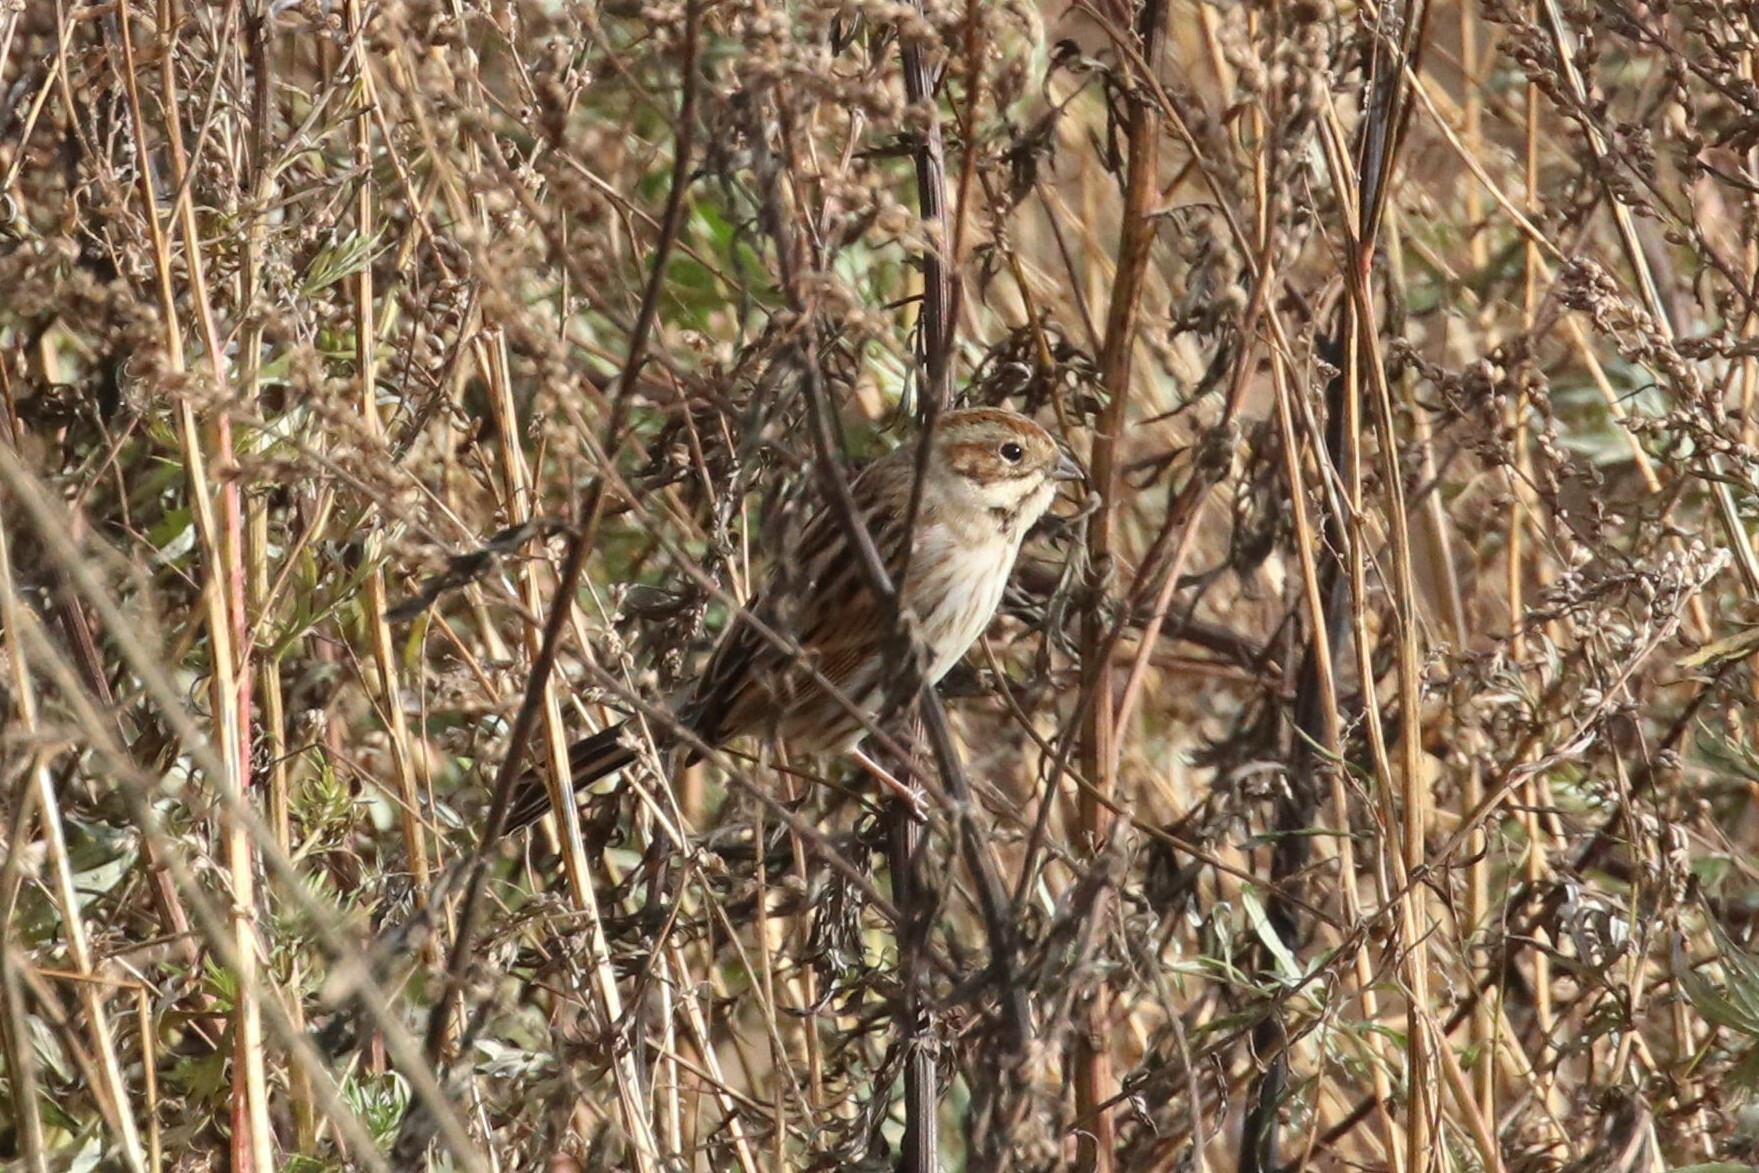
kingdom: Animalia
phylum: Chordata
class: Aves
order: Passeriformes
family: Emberizidae
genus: Emberiza
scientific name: Emberiza schoeniclus
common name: Reed bunting
